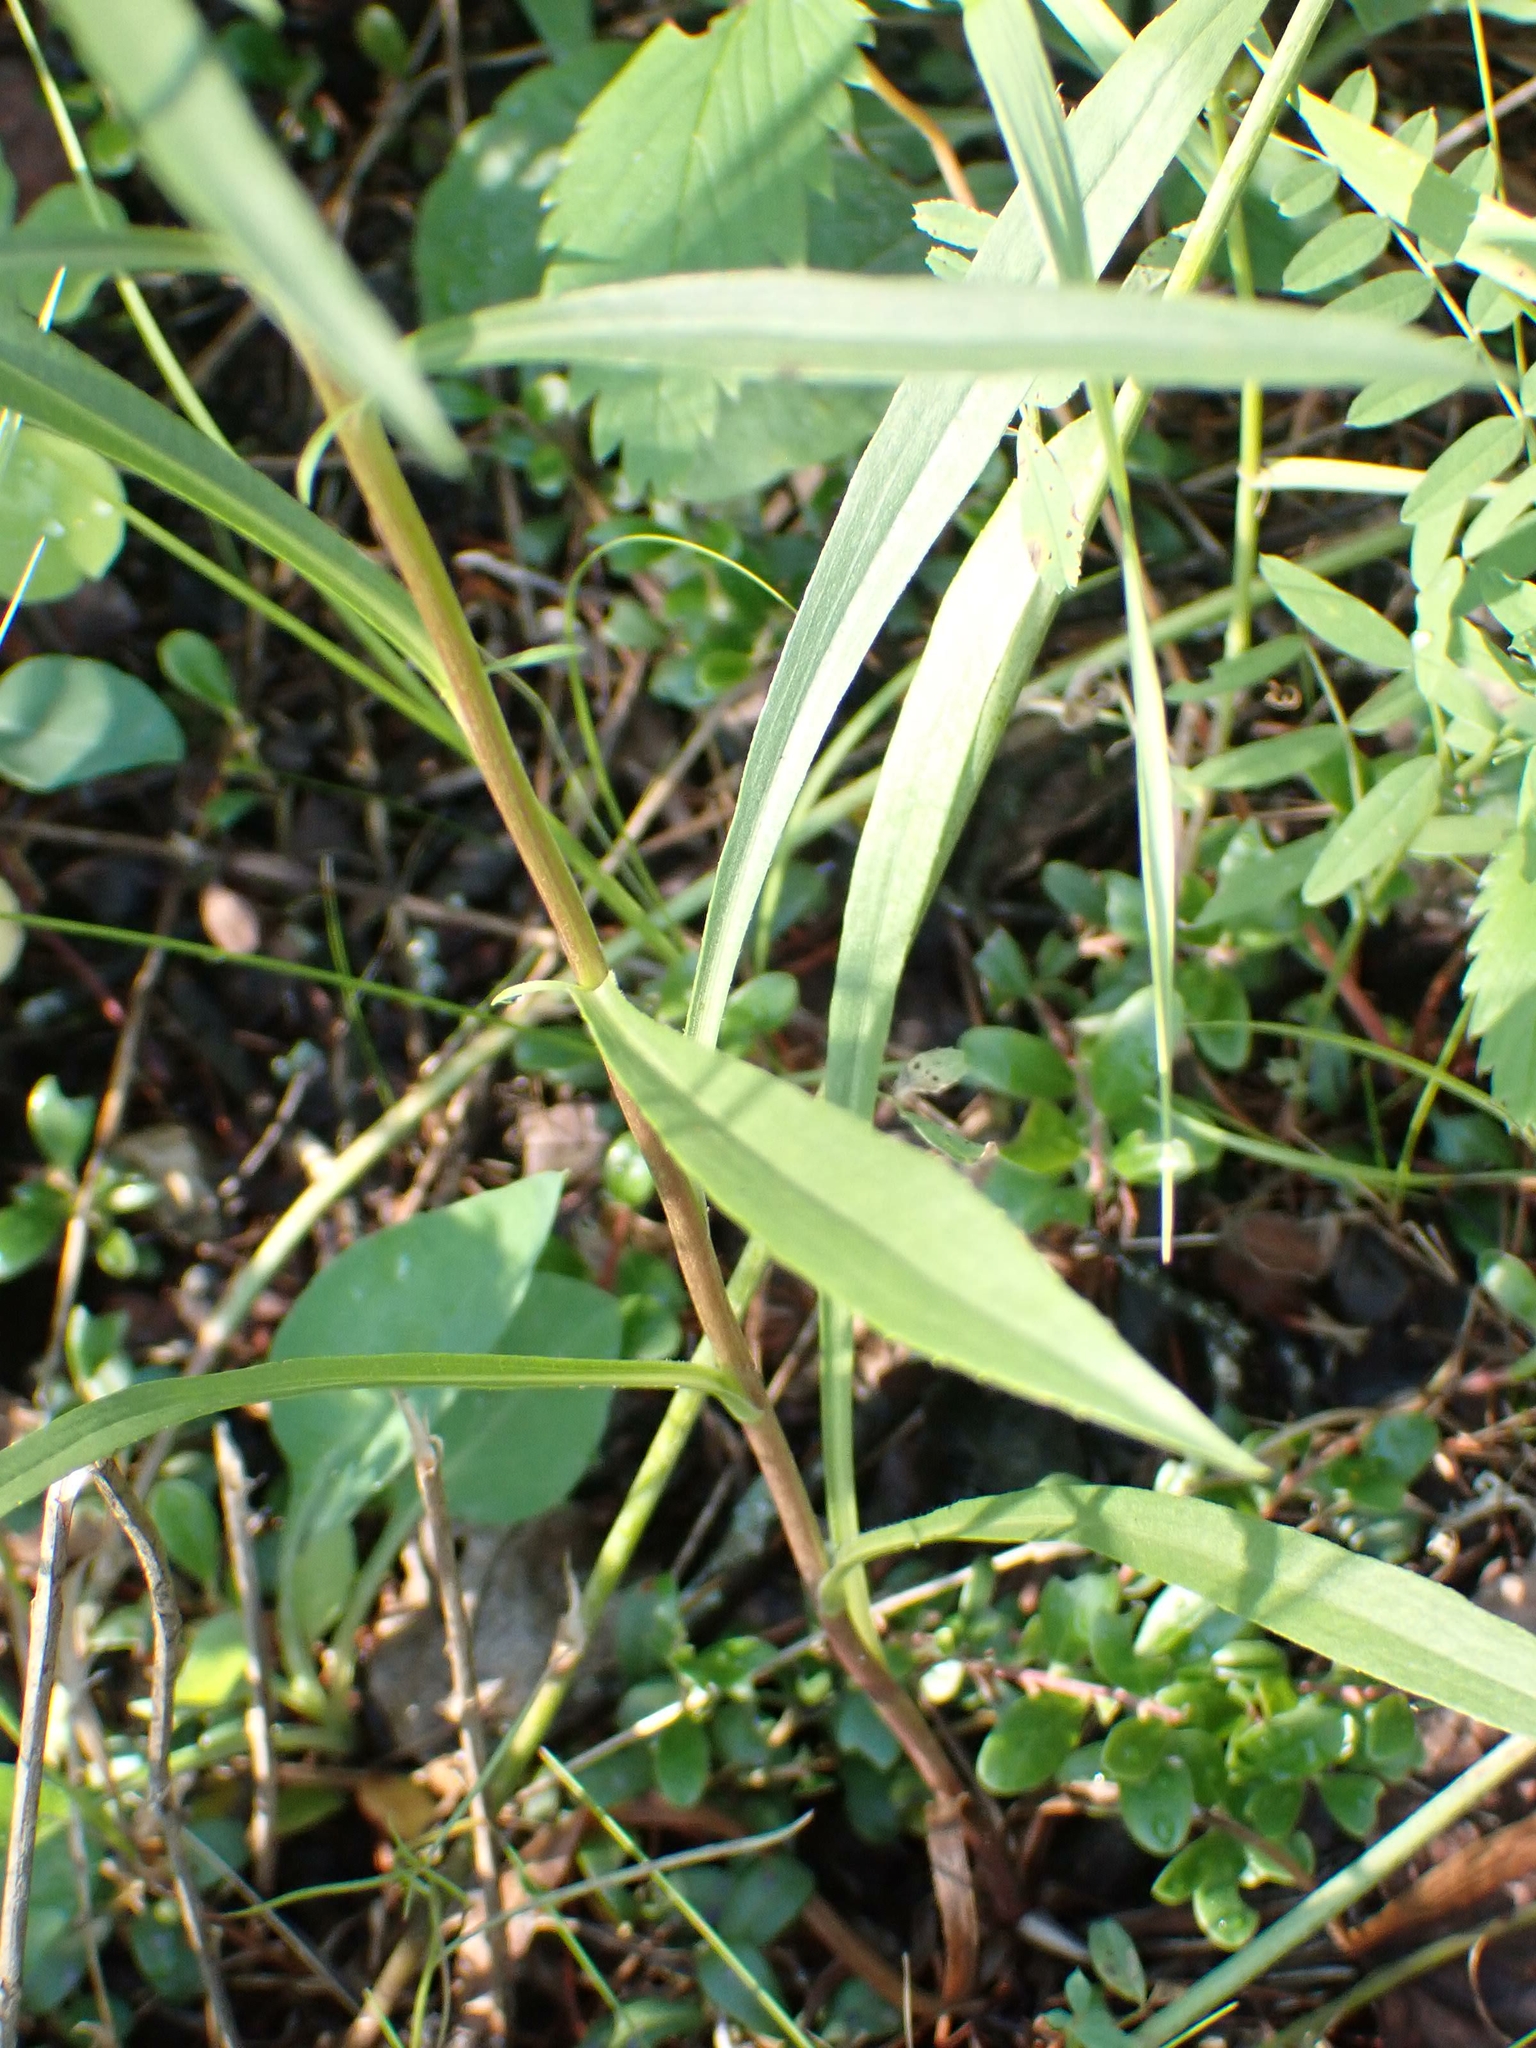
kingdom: Plantae
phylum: Tracheophyta
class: Magnoliopsida
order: Asterales
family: Asteraceae
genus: Solidago
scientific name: Solidago uliginosa
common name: Bog goldenrod
